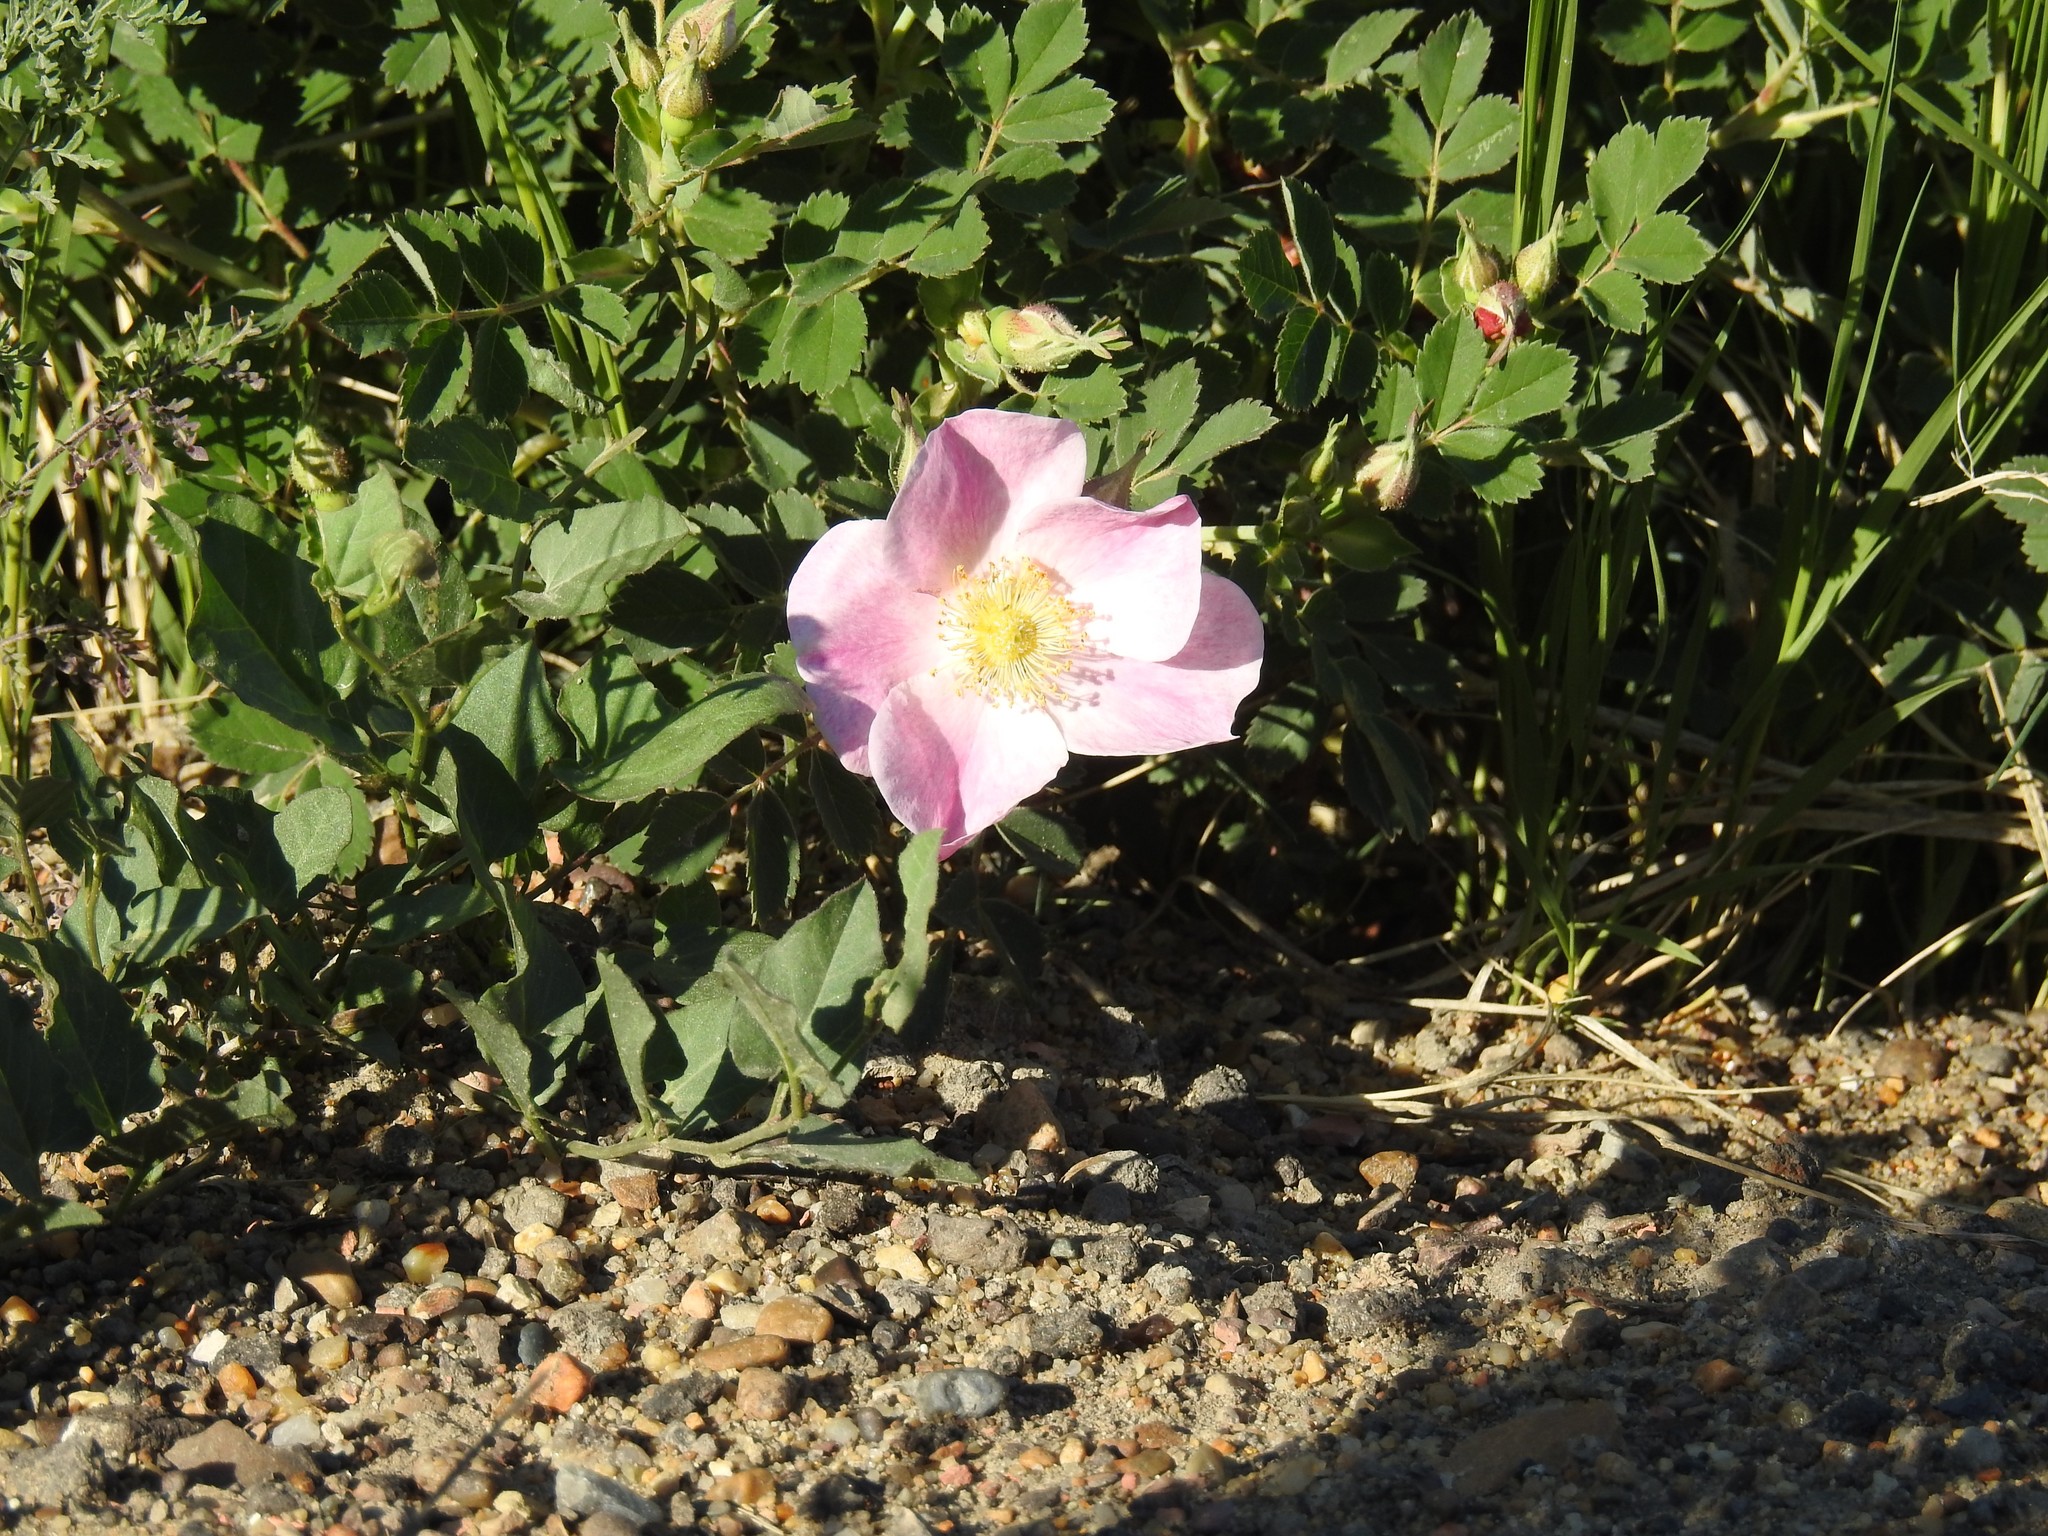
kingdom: Plantae
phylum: Tracheophyta
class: Magnoliopsida
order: Rosales
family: Rosaceae
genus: Rosa
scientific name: Rosa arkansana
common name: Prairie rose
